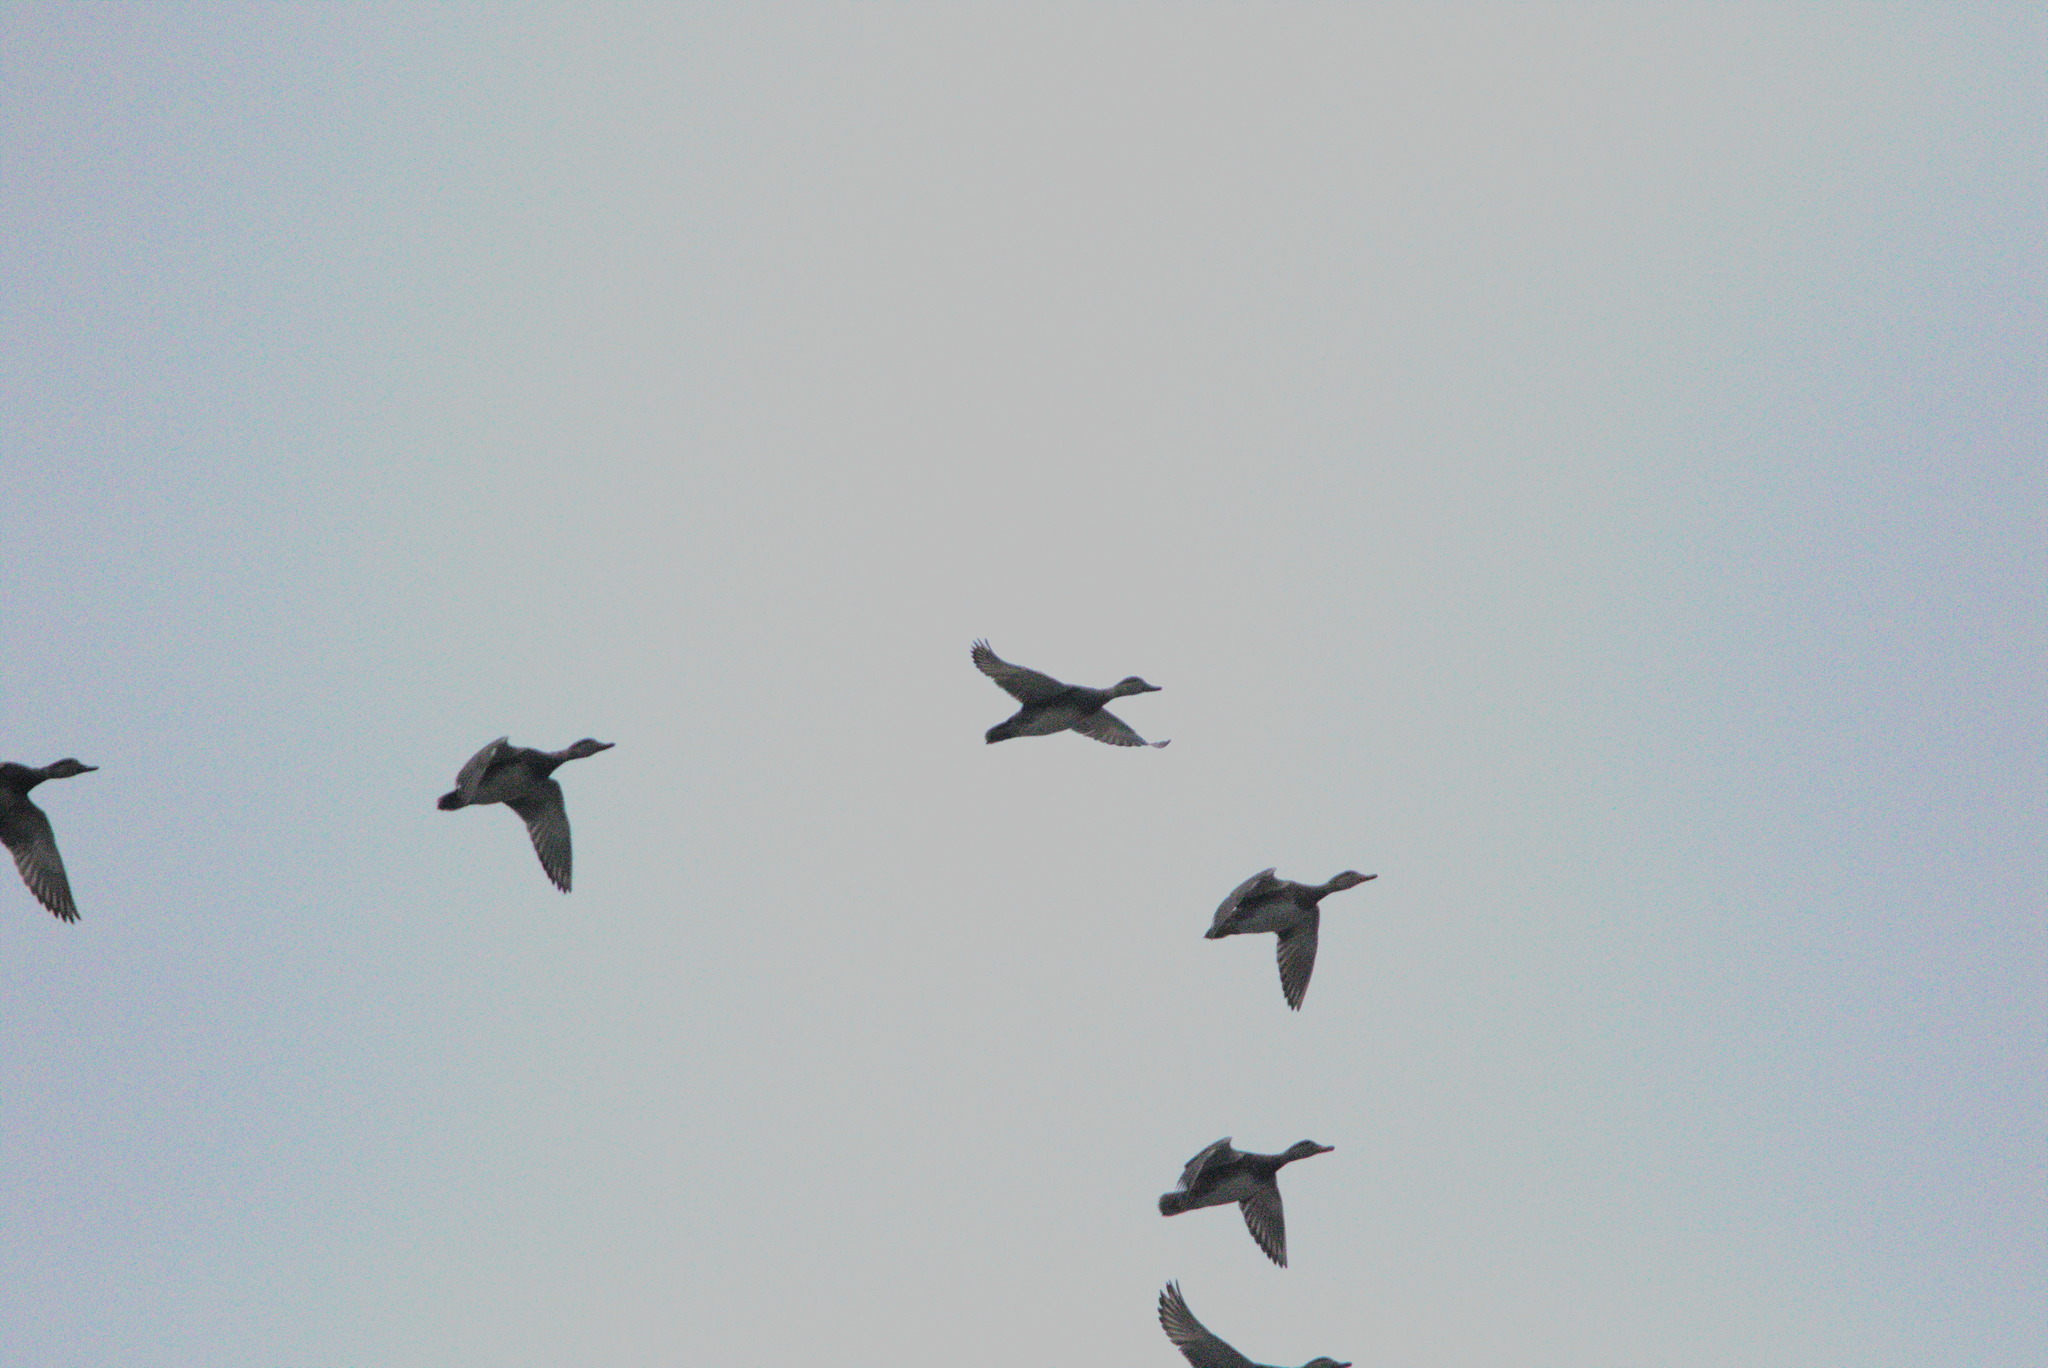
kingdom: Animalia
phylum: Chordata
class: Aves
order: Anseriformes
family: Anatidae
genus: Mareca
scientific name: Mareca strepera
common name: Gadwall
